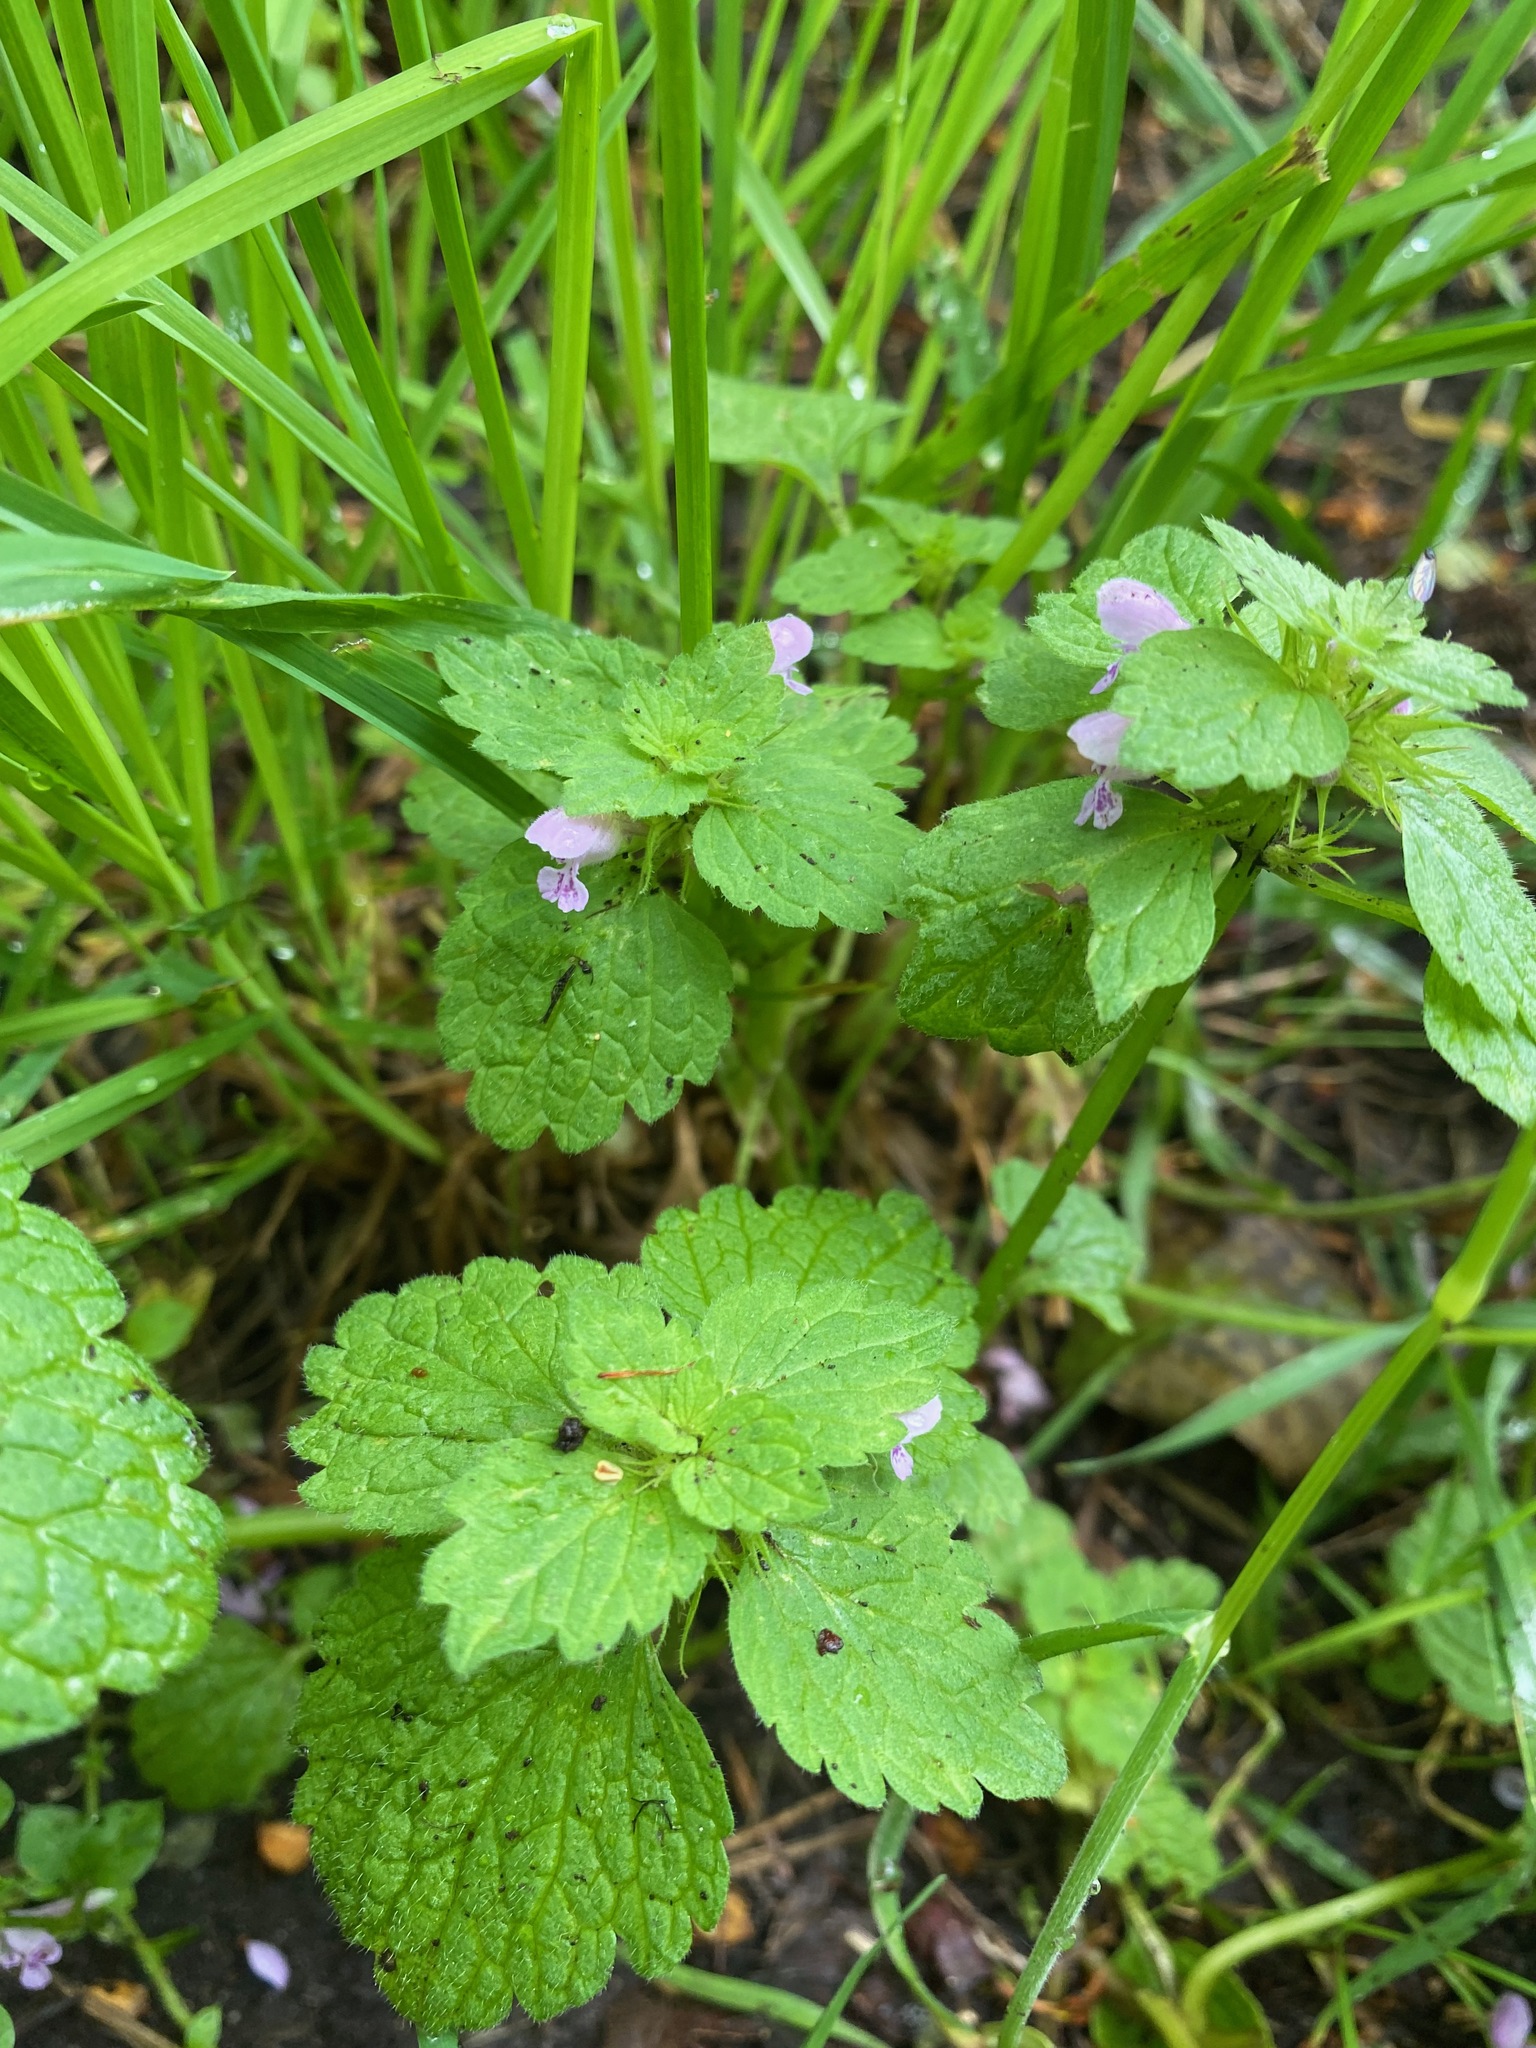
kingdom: Plantae
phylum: Tracheophyta
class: Magnoliopsida
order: Lamiales
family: Lamiaceae
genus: Lamium
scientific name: Lamium purpureum
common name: Red dead-nettle
